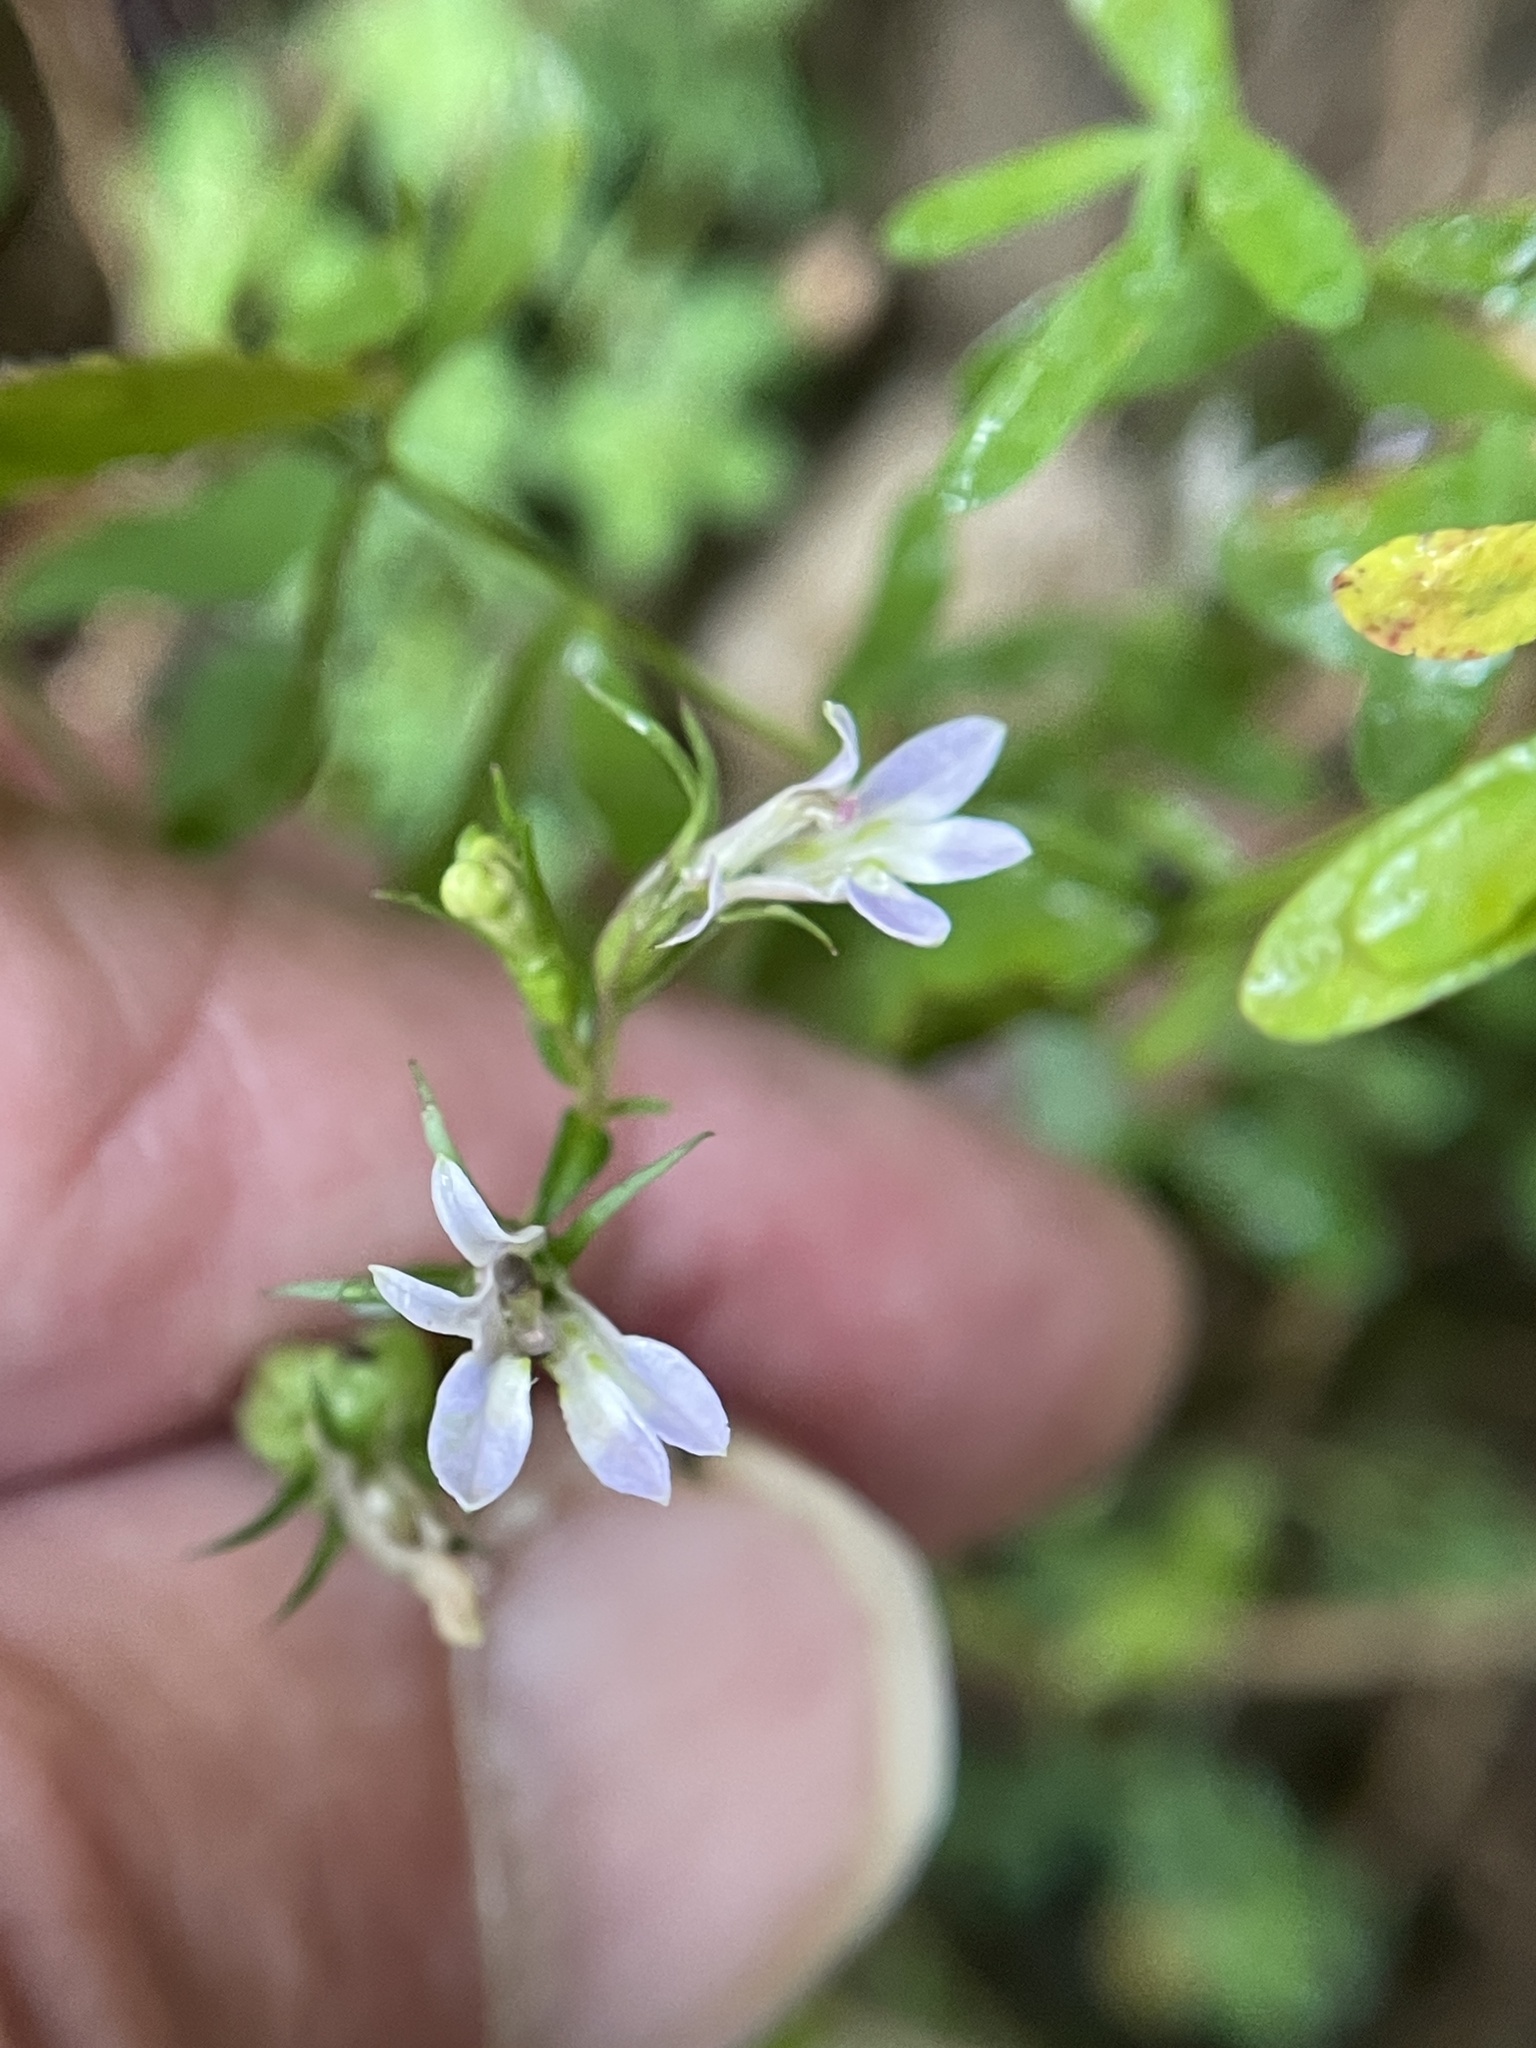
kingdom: Plantae
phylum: Tracheophyta
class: Magnoliopsida
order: Asterales
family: Campanulaceae
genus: Lobelia
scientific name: Lobelia inflata
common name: Indian tobacco
